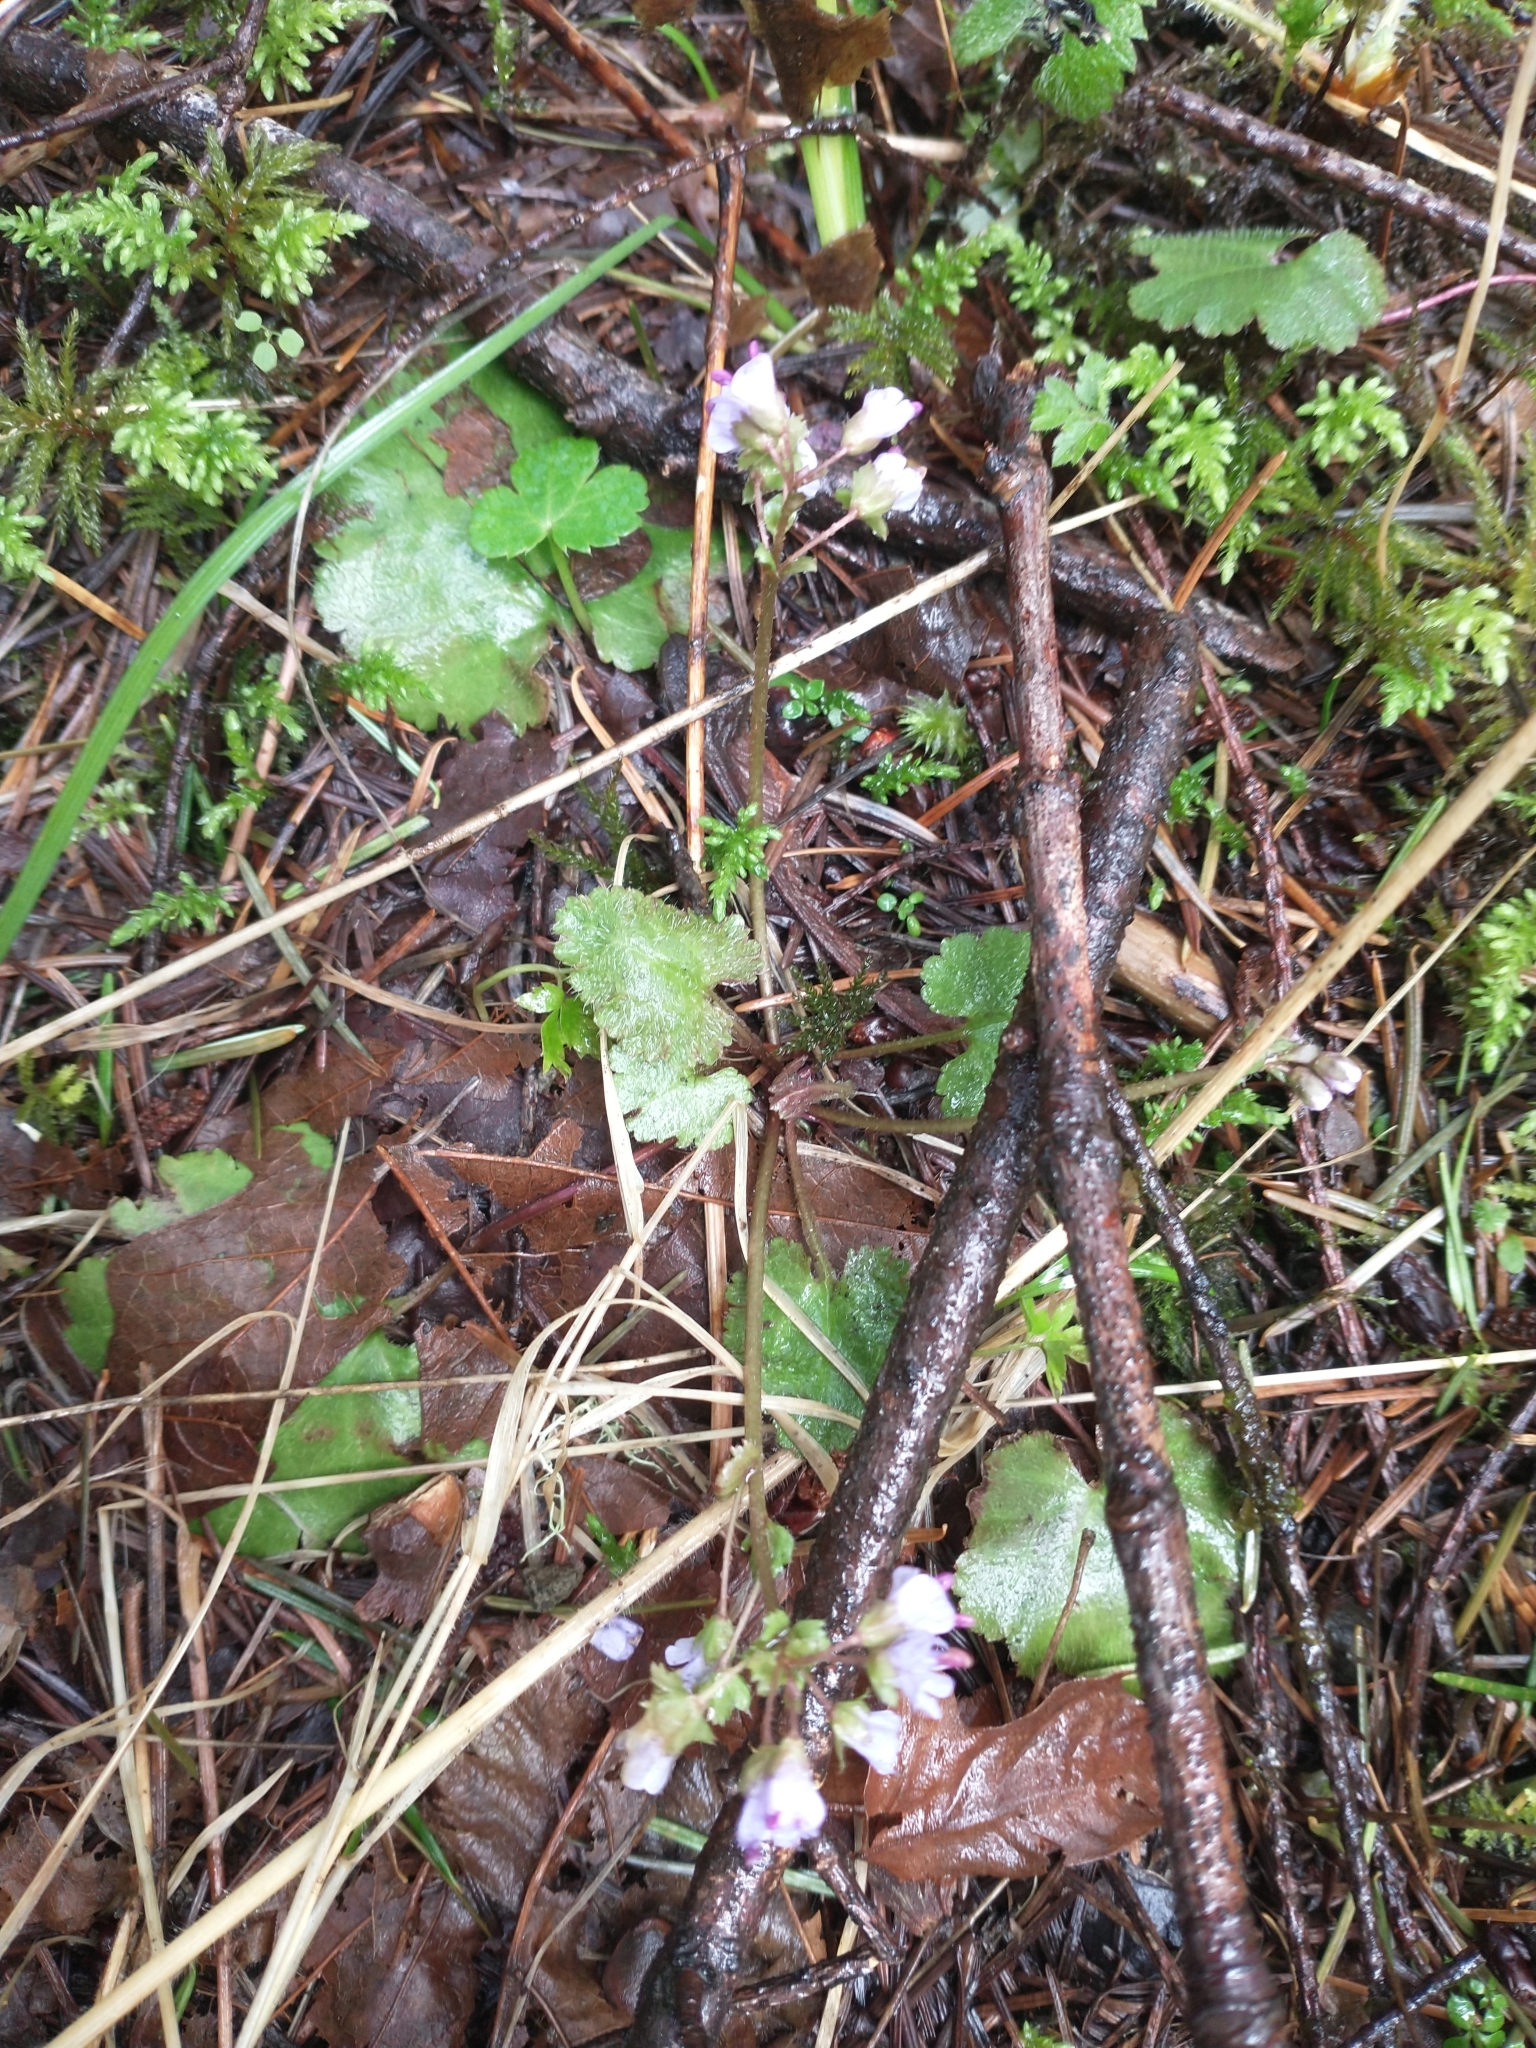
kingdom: Plantae
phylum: Tracheophyta
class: Magnoliopsida
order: Lamiales
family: Plantaginaceae
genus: Synthyris
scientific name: Synthyris reniformis
